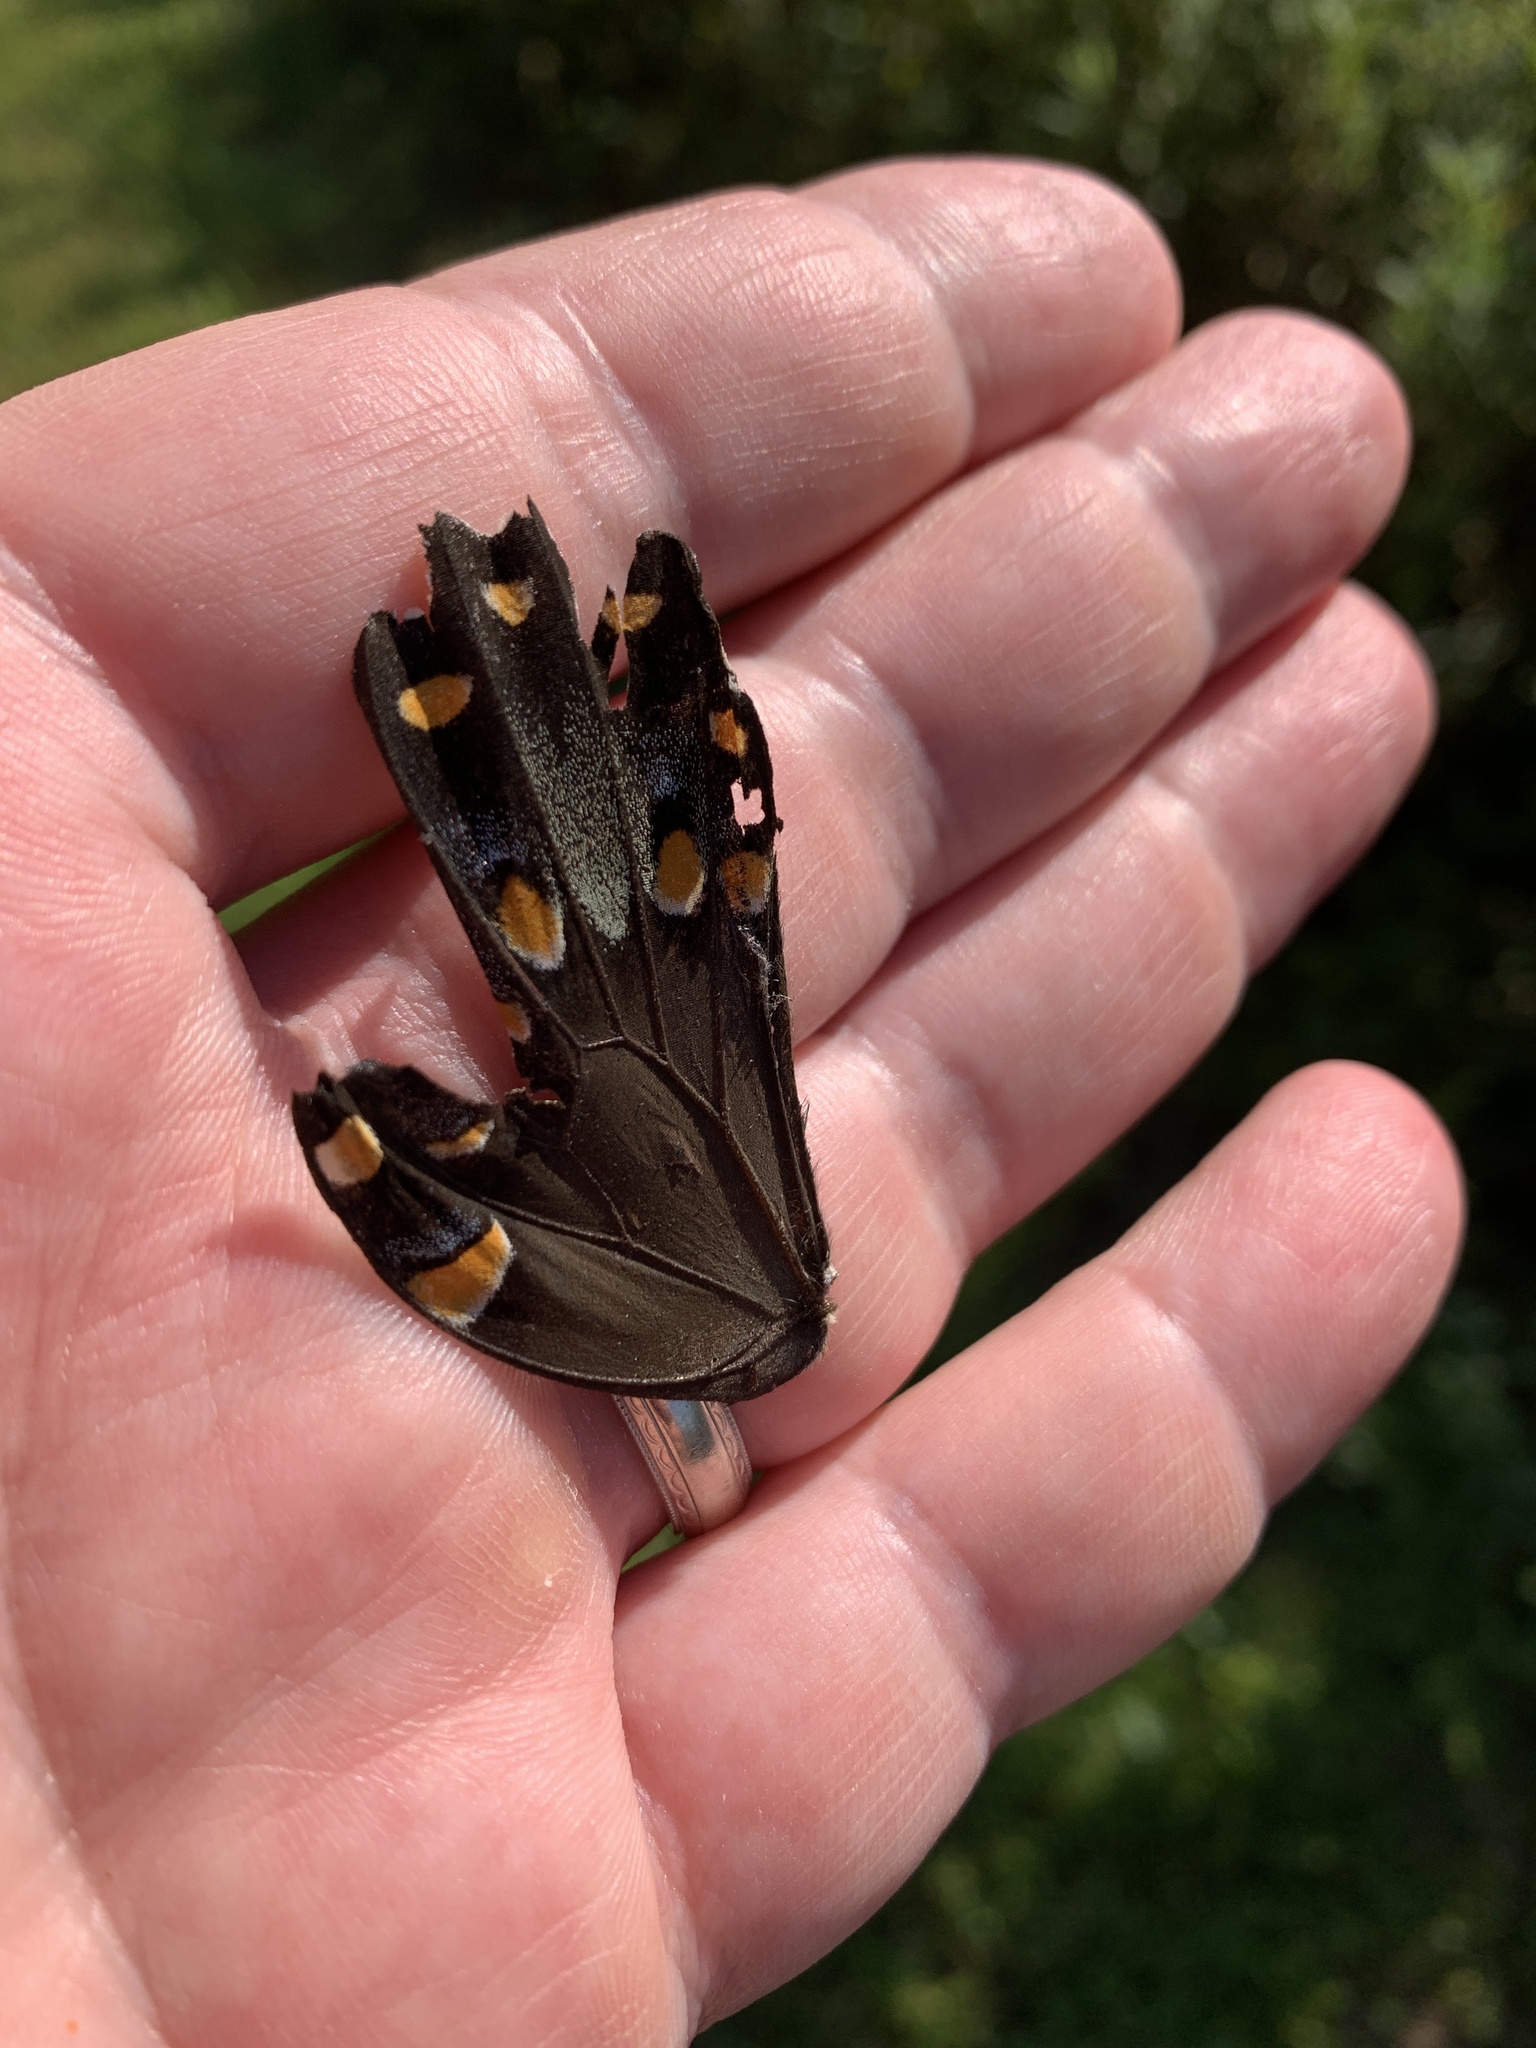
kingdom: Animalia
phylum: Arthropoda
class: Insecta
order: Lepidoptera
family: Papilionidae
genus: Papilio
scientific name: Papilio troilus
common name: Spicebush swallowtail
